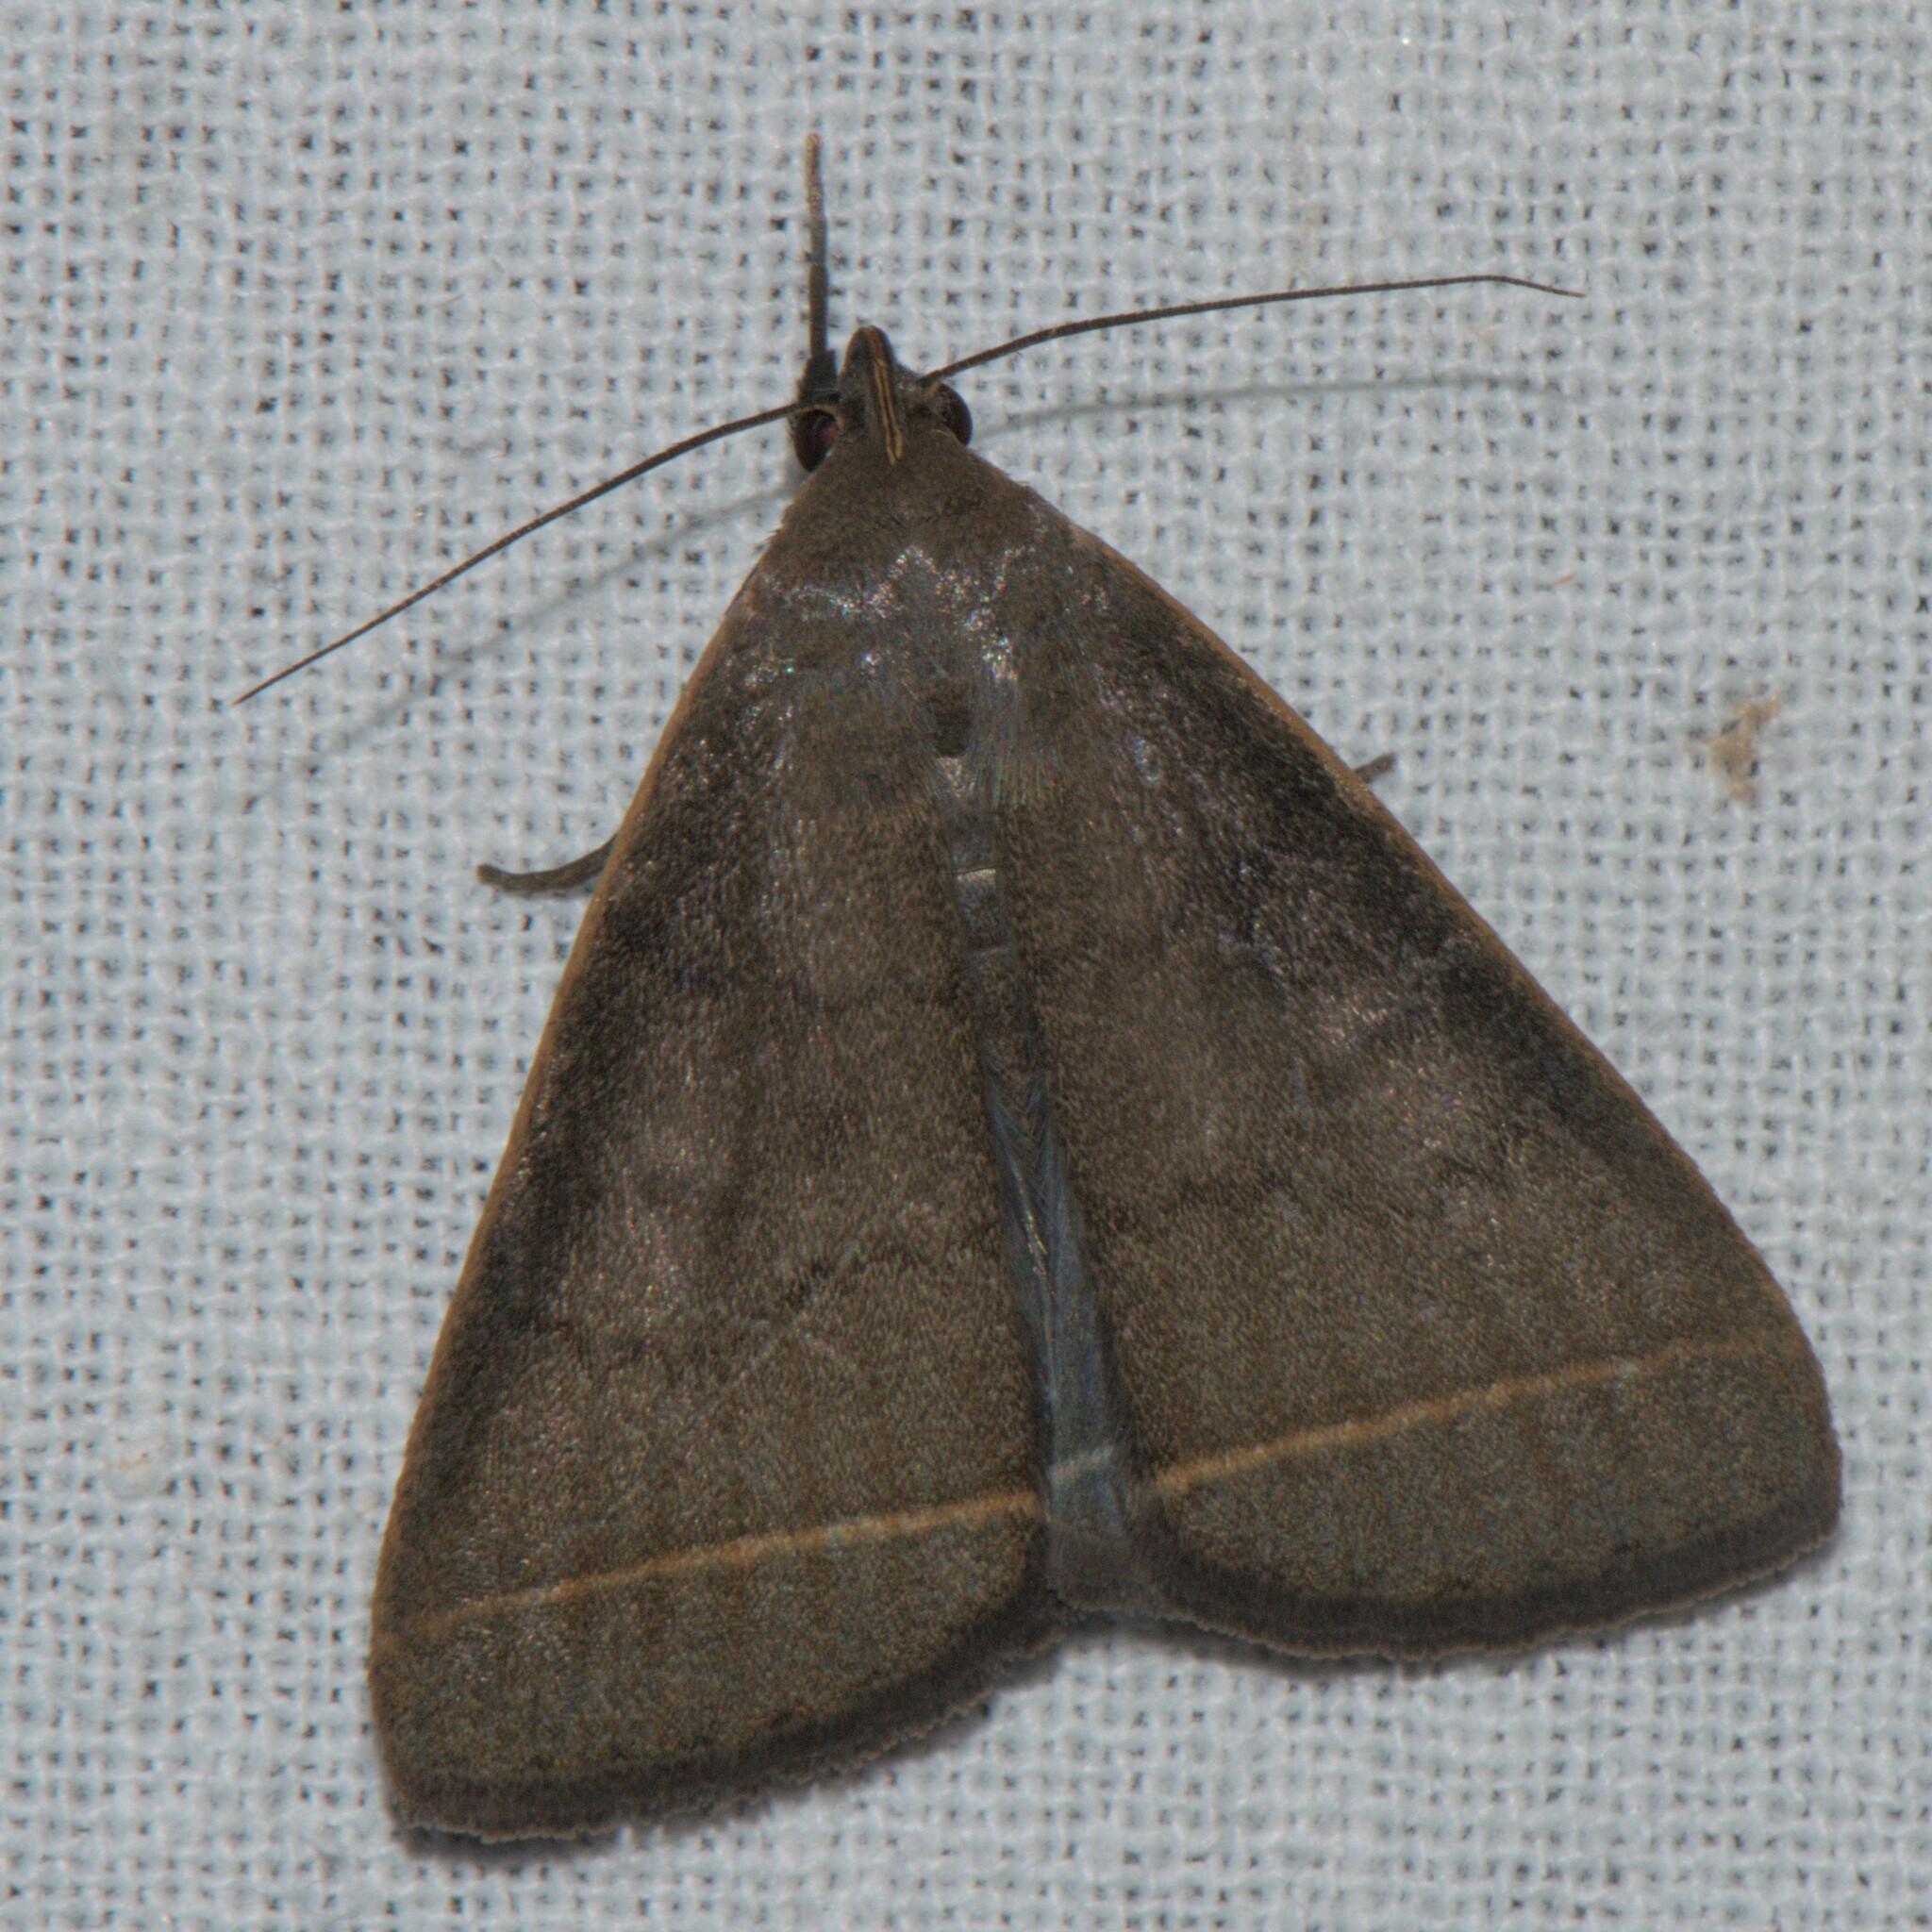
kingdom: Animalia
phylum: Arthropoda
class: Insecta
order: Lepidoptera
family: Erebidae
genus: Simplicia
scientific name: Simplicia cornicalis
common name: Tiki hut litter moth
